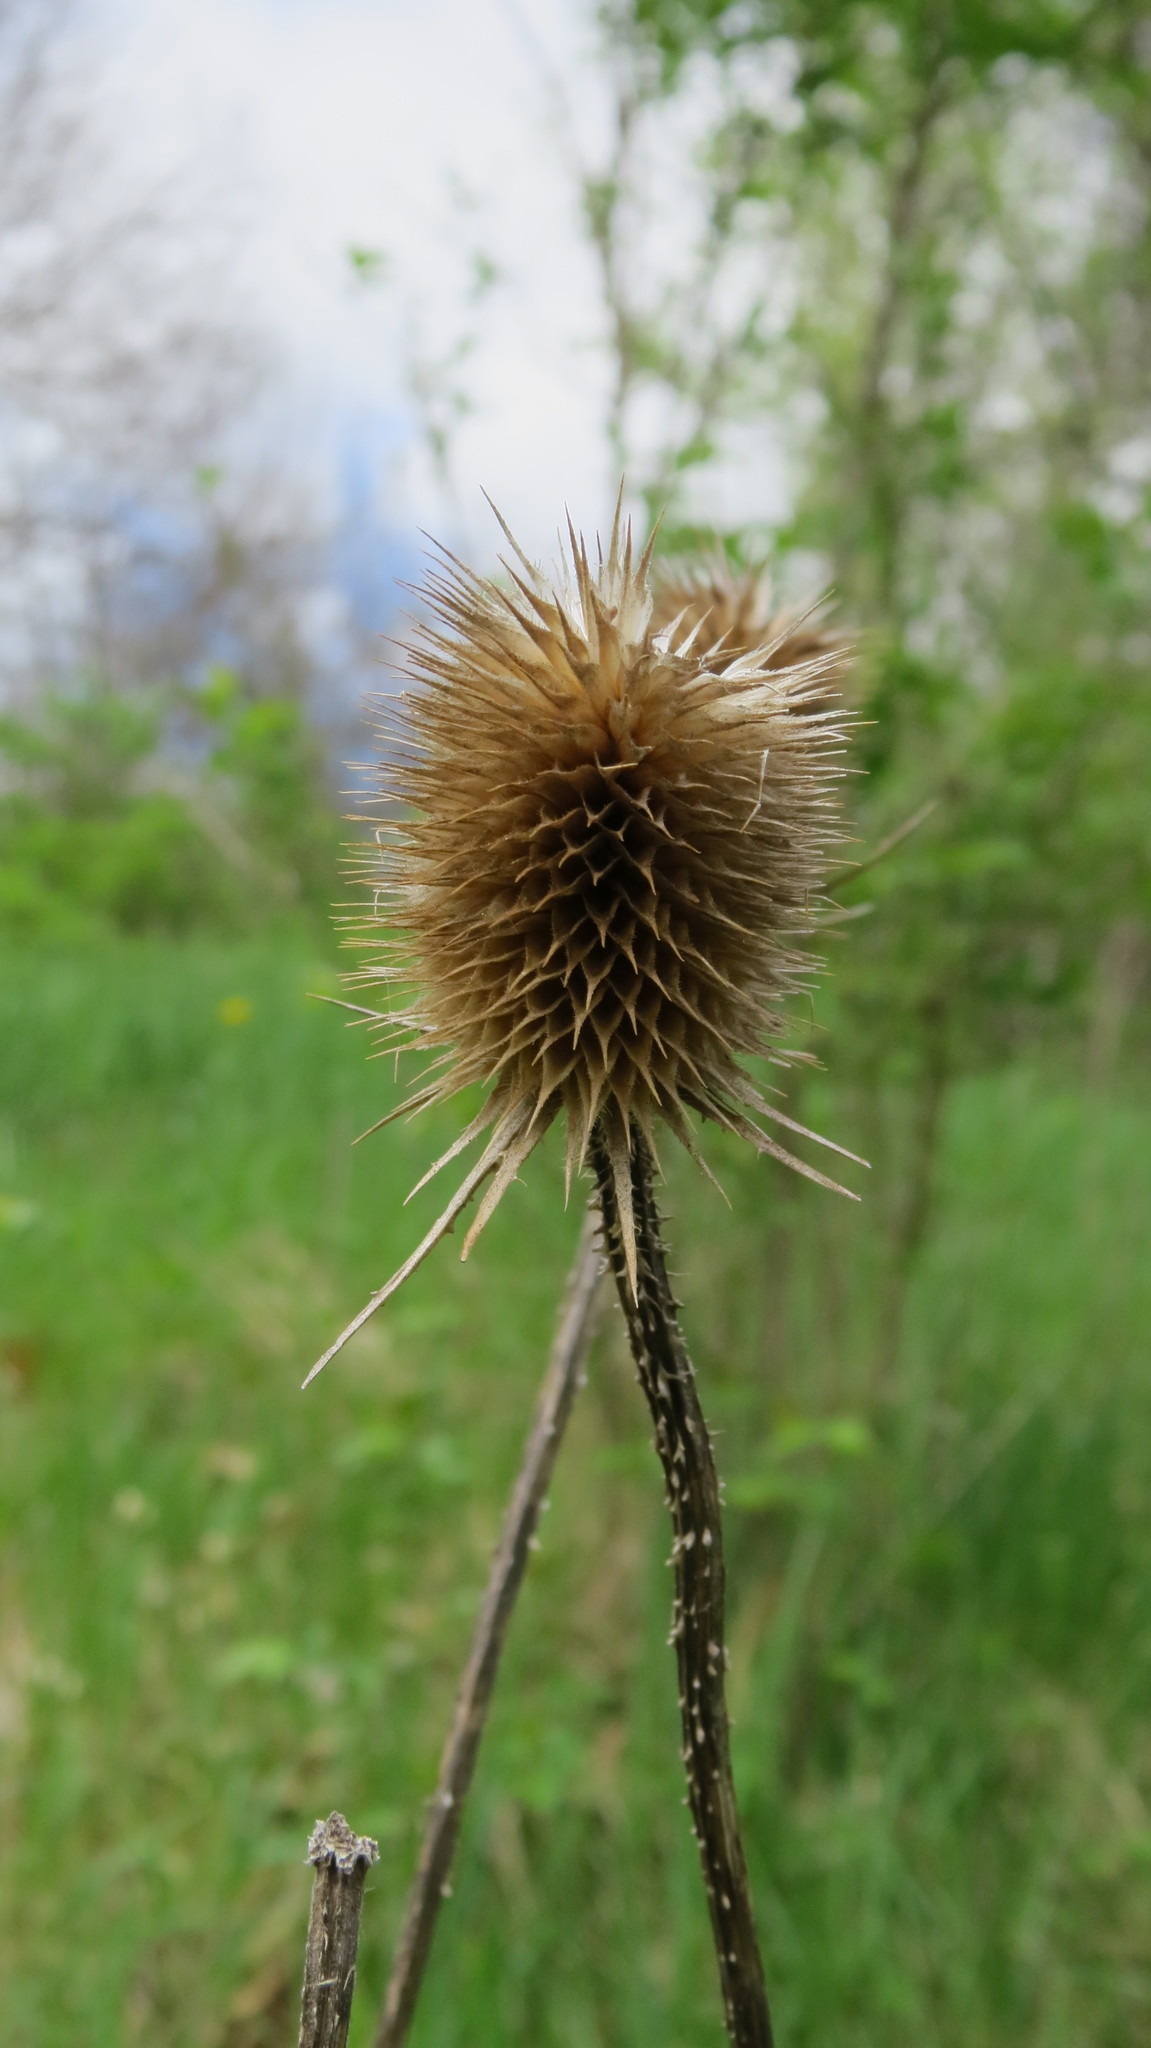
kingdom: Plantae
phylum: Tracheophyta
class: Magnoliopsida
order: Dipsacales
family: Caprifoliaceae
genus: Dipsacus
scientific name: Dipsacus fullonum
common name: Teasel
